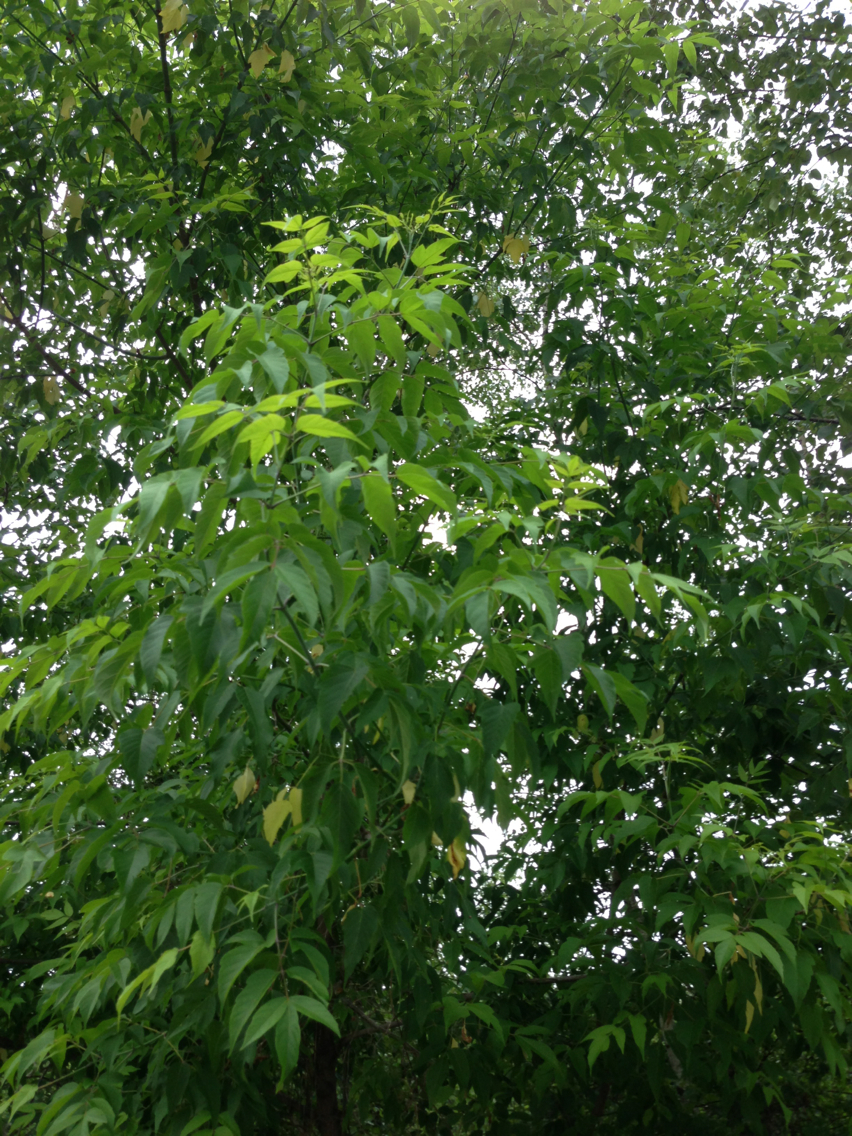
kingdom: Plantae
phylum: Tracheophyta
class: Magnoliopsida
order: Sapindales
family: Sapindaceae
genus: Acer
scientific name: Acer negundo
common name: Ashleaf maple
